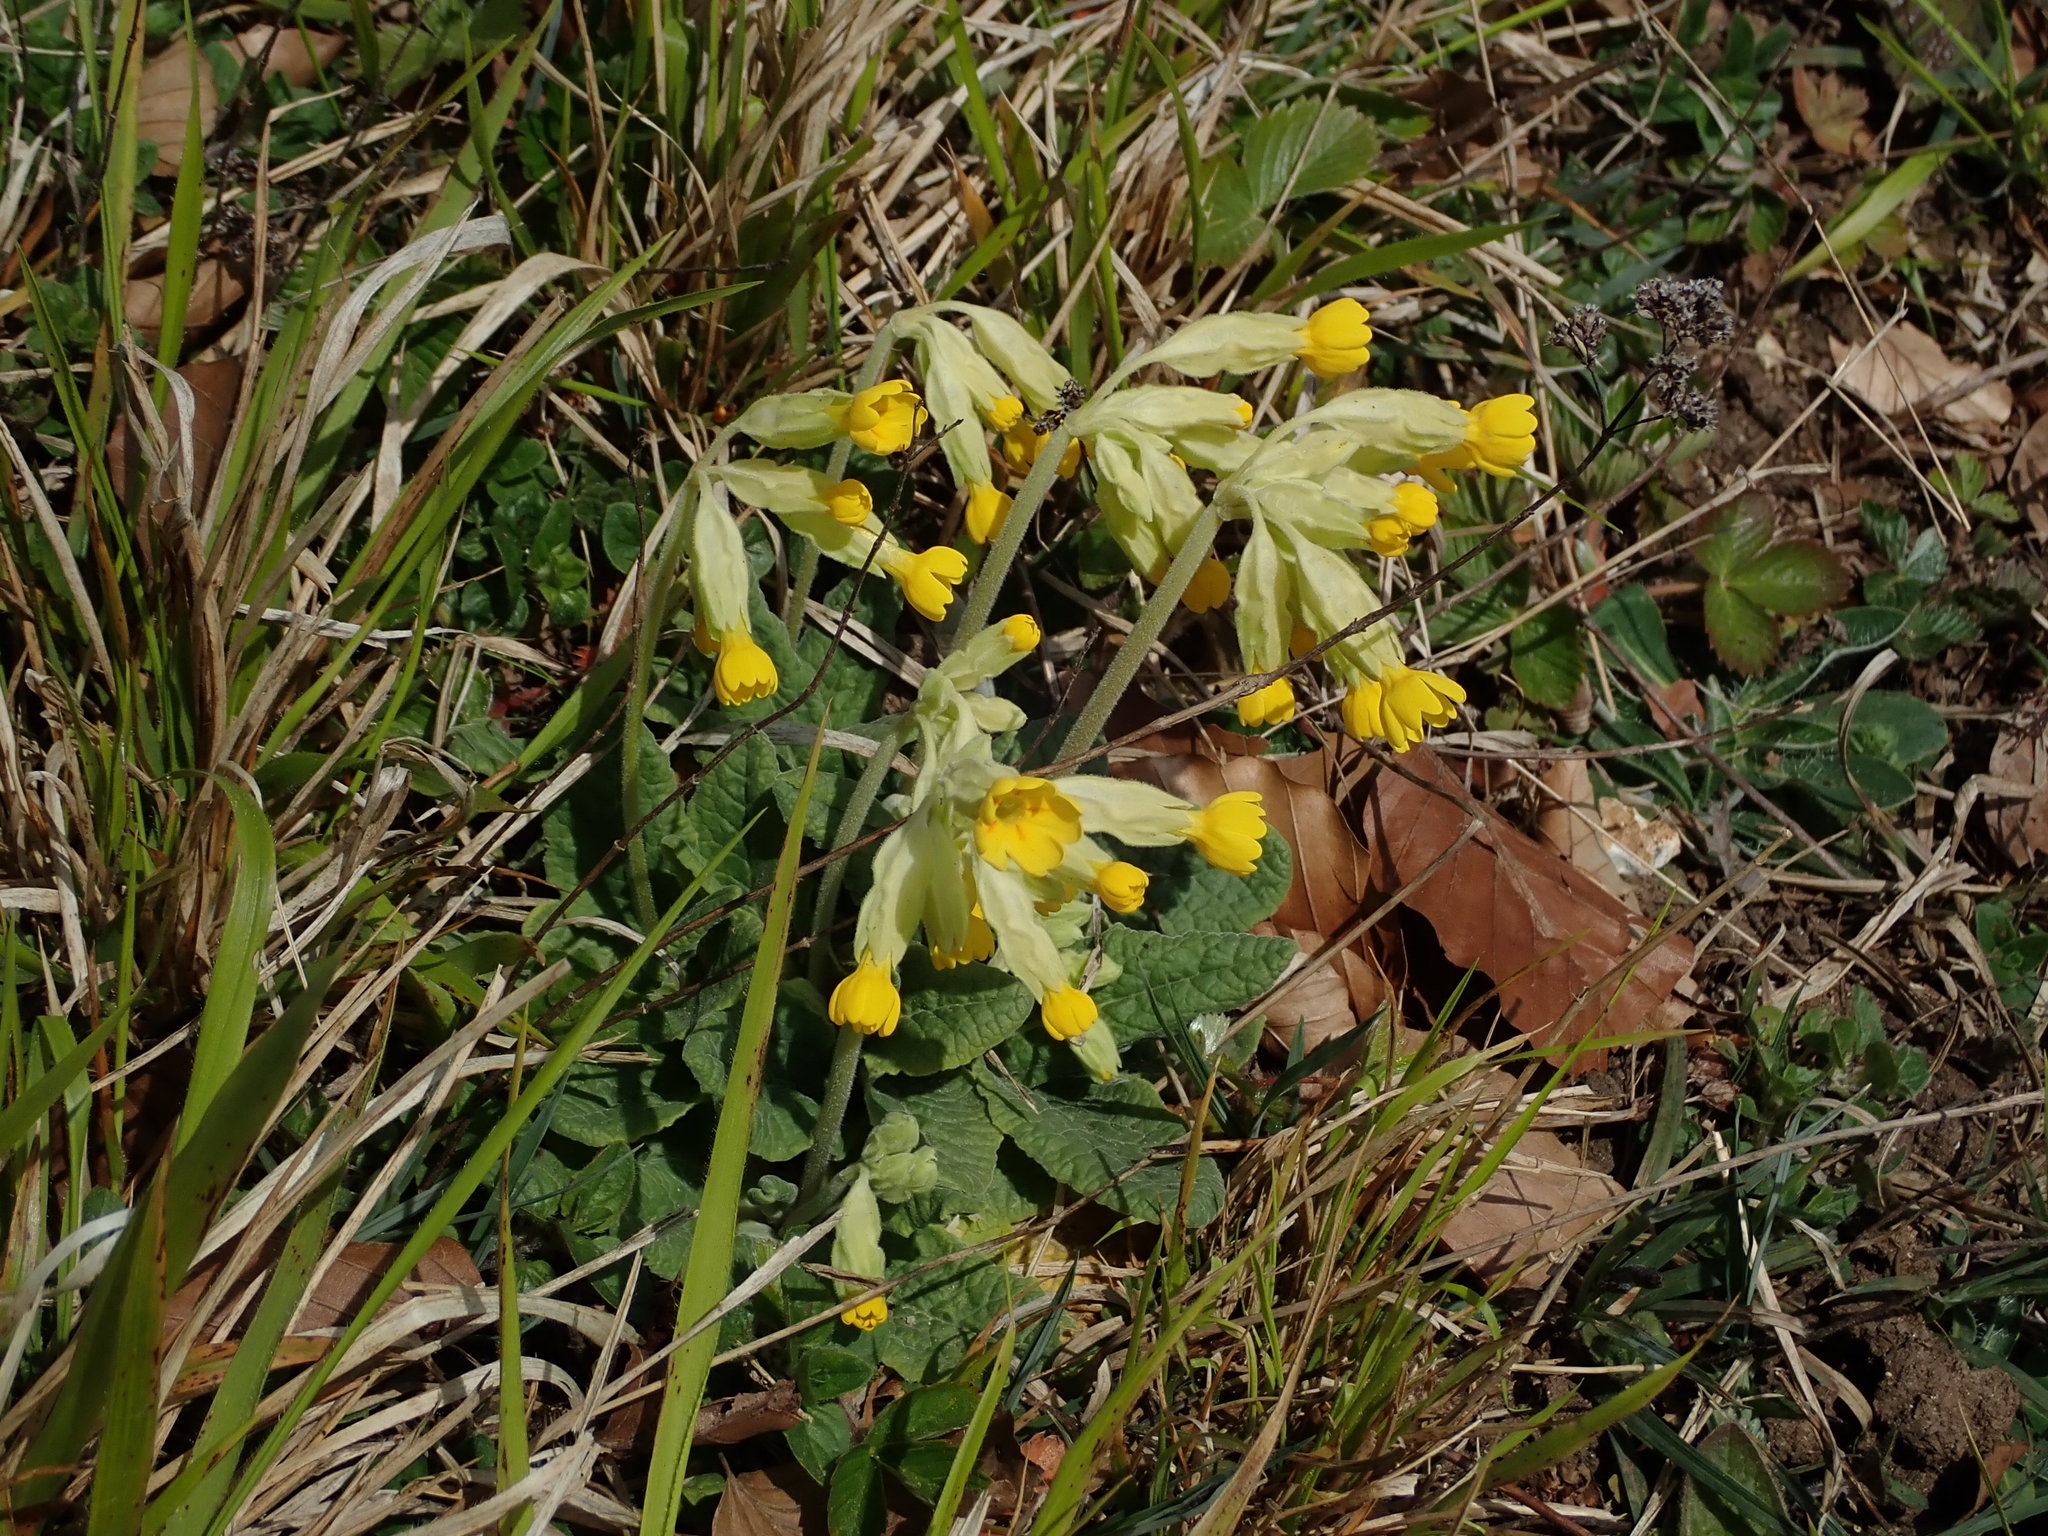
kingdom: Plantae
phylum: Tracheophyta
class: Magnoliopsida
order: Ericales
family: Primulaceae
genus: Primula
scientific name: Primula veris
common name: Cowslip
